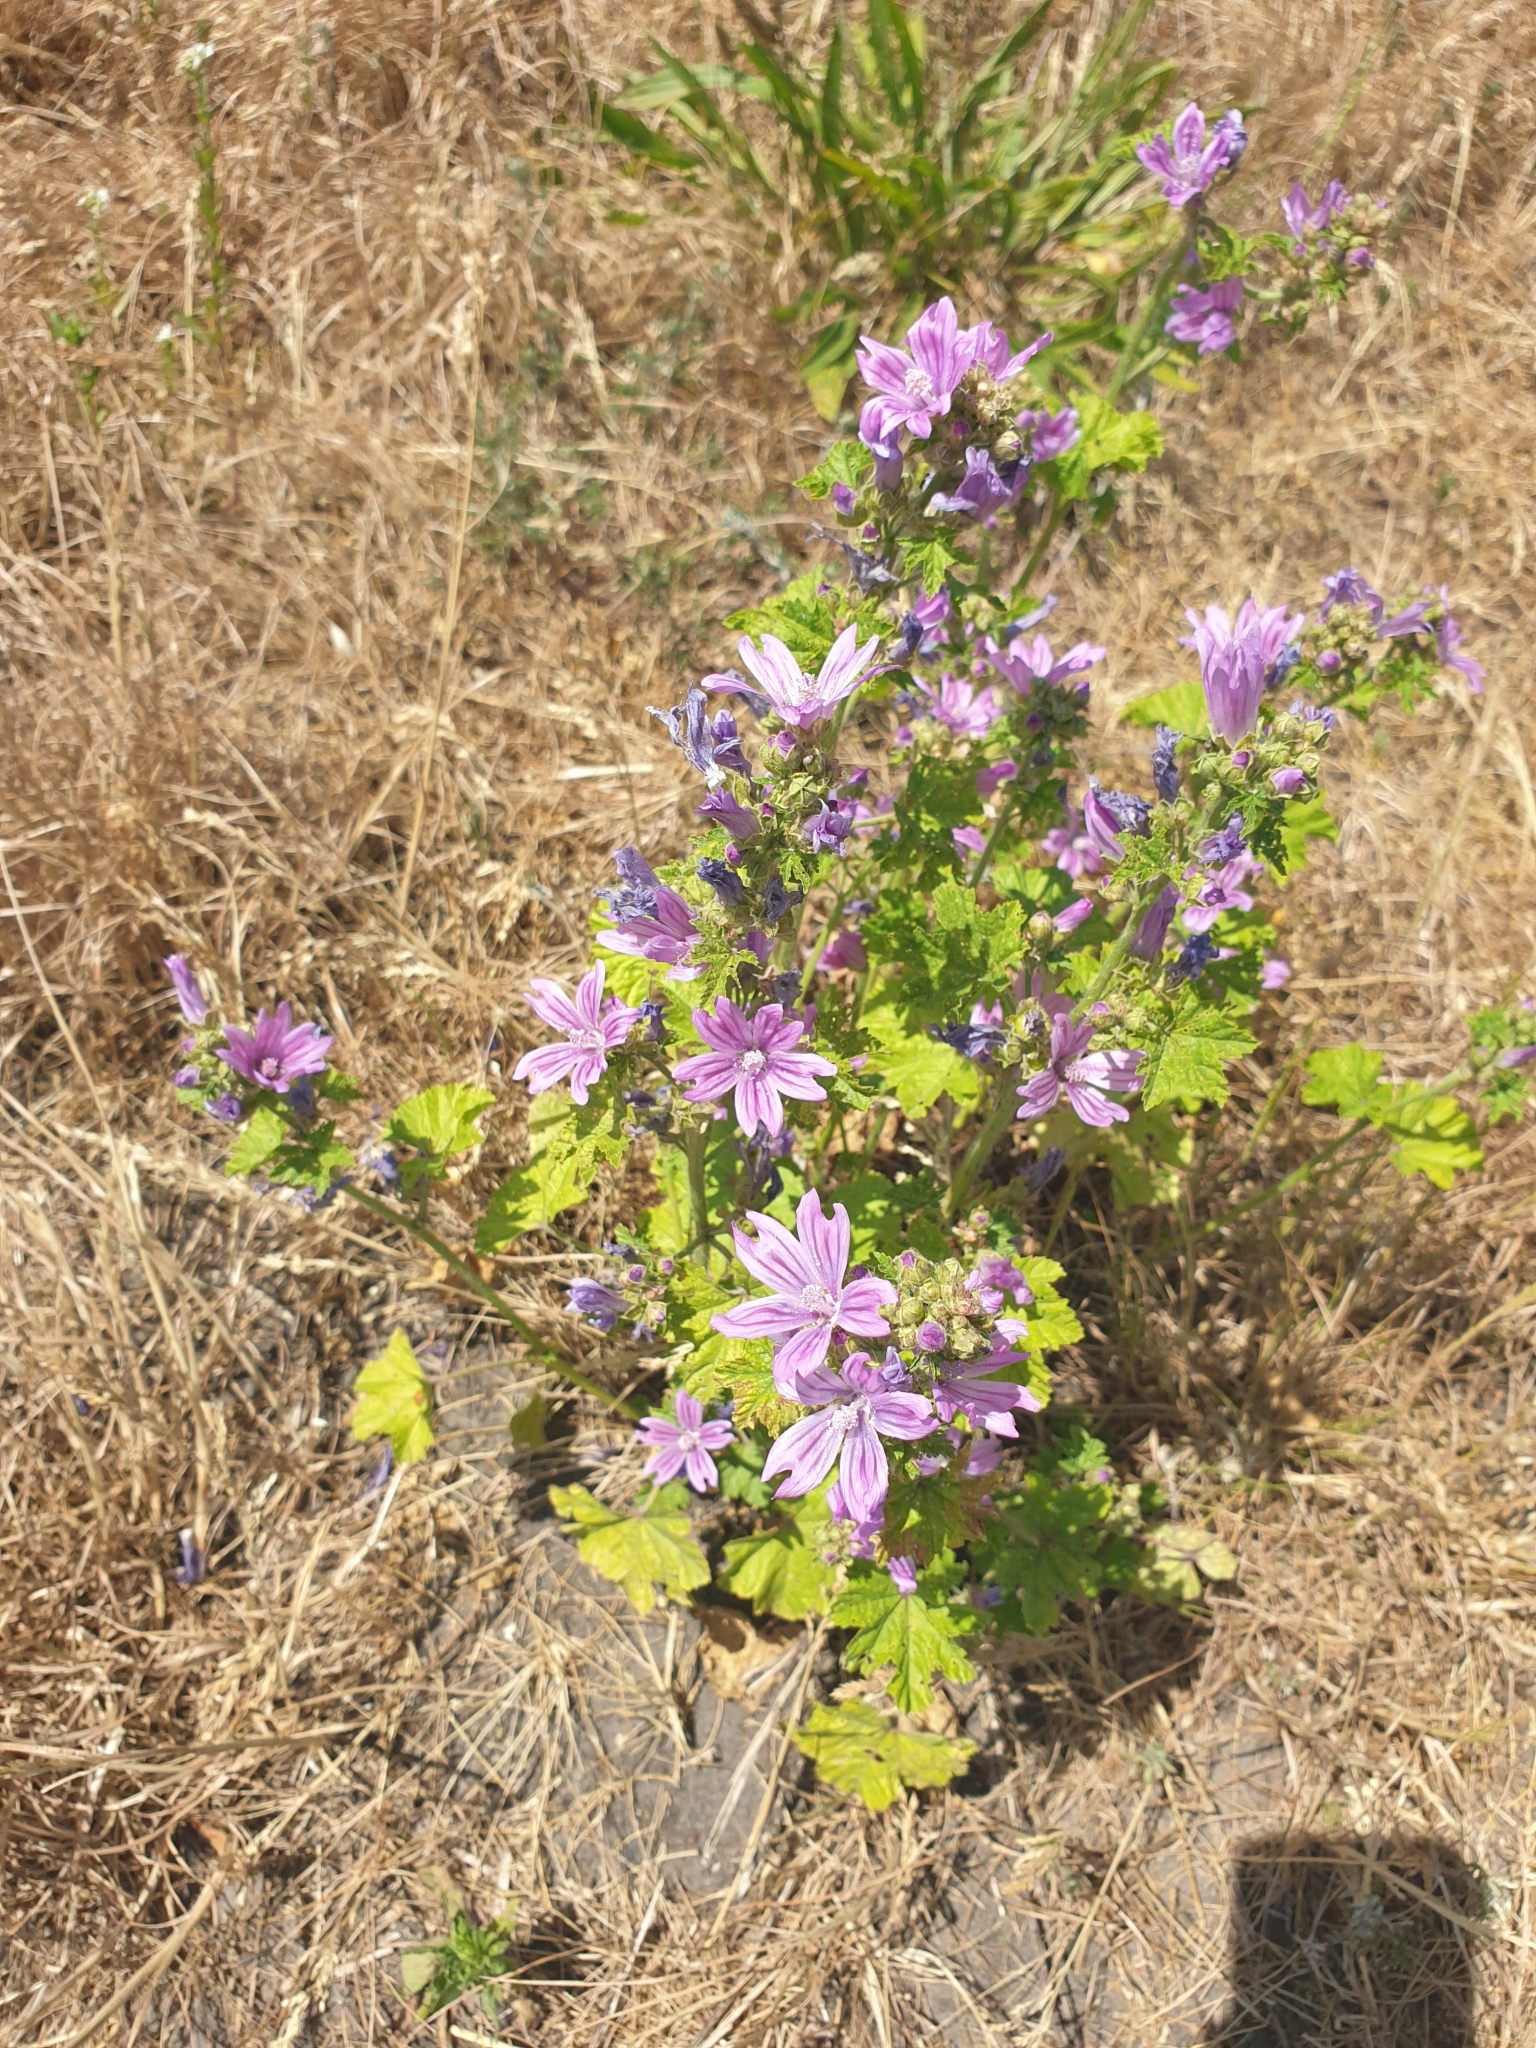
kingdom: Plantae
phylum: Tracheophyta
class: Magnoliopsida
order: Malvales
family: Malvaceae
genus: Malva
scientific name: Malva sylvestris
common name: Common mallow
